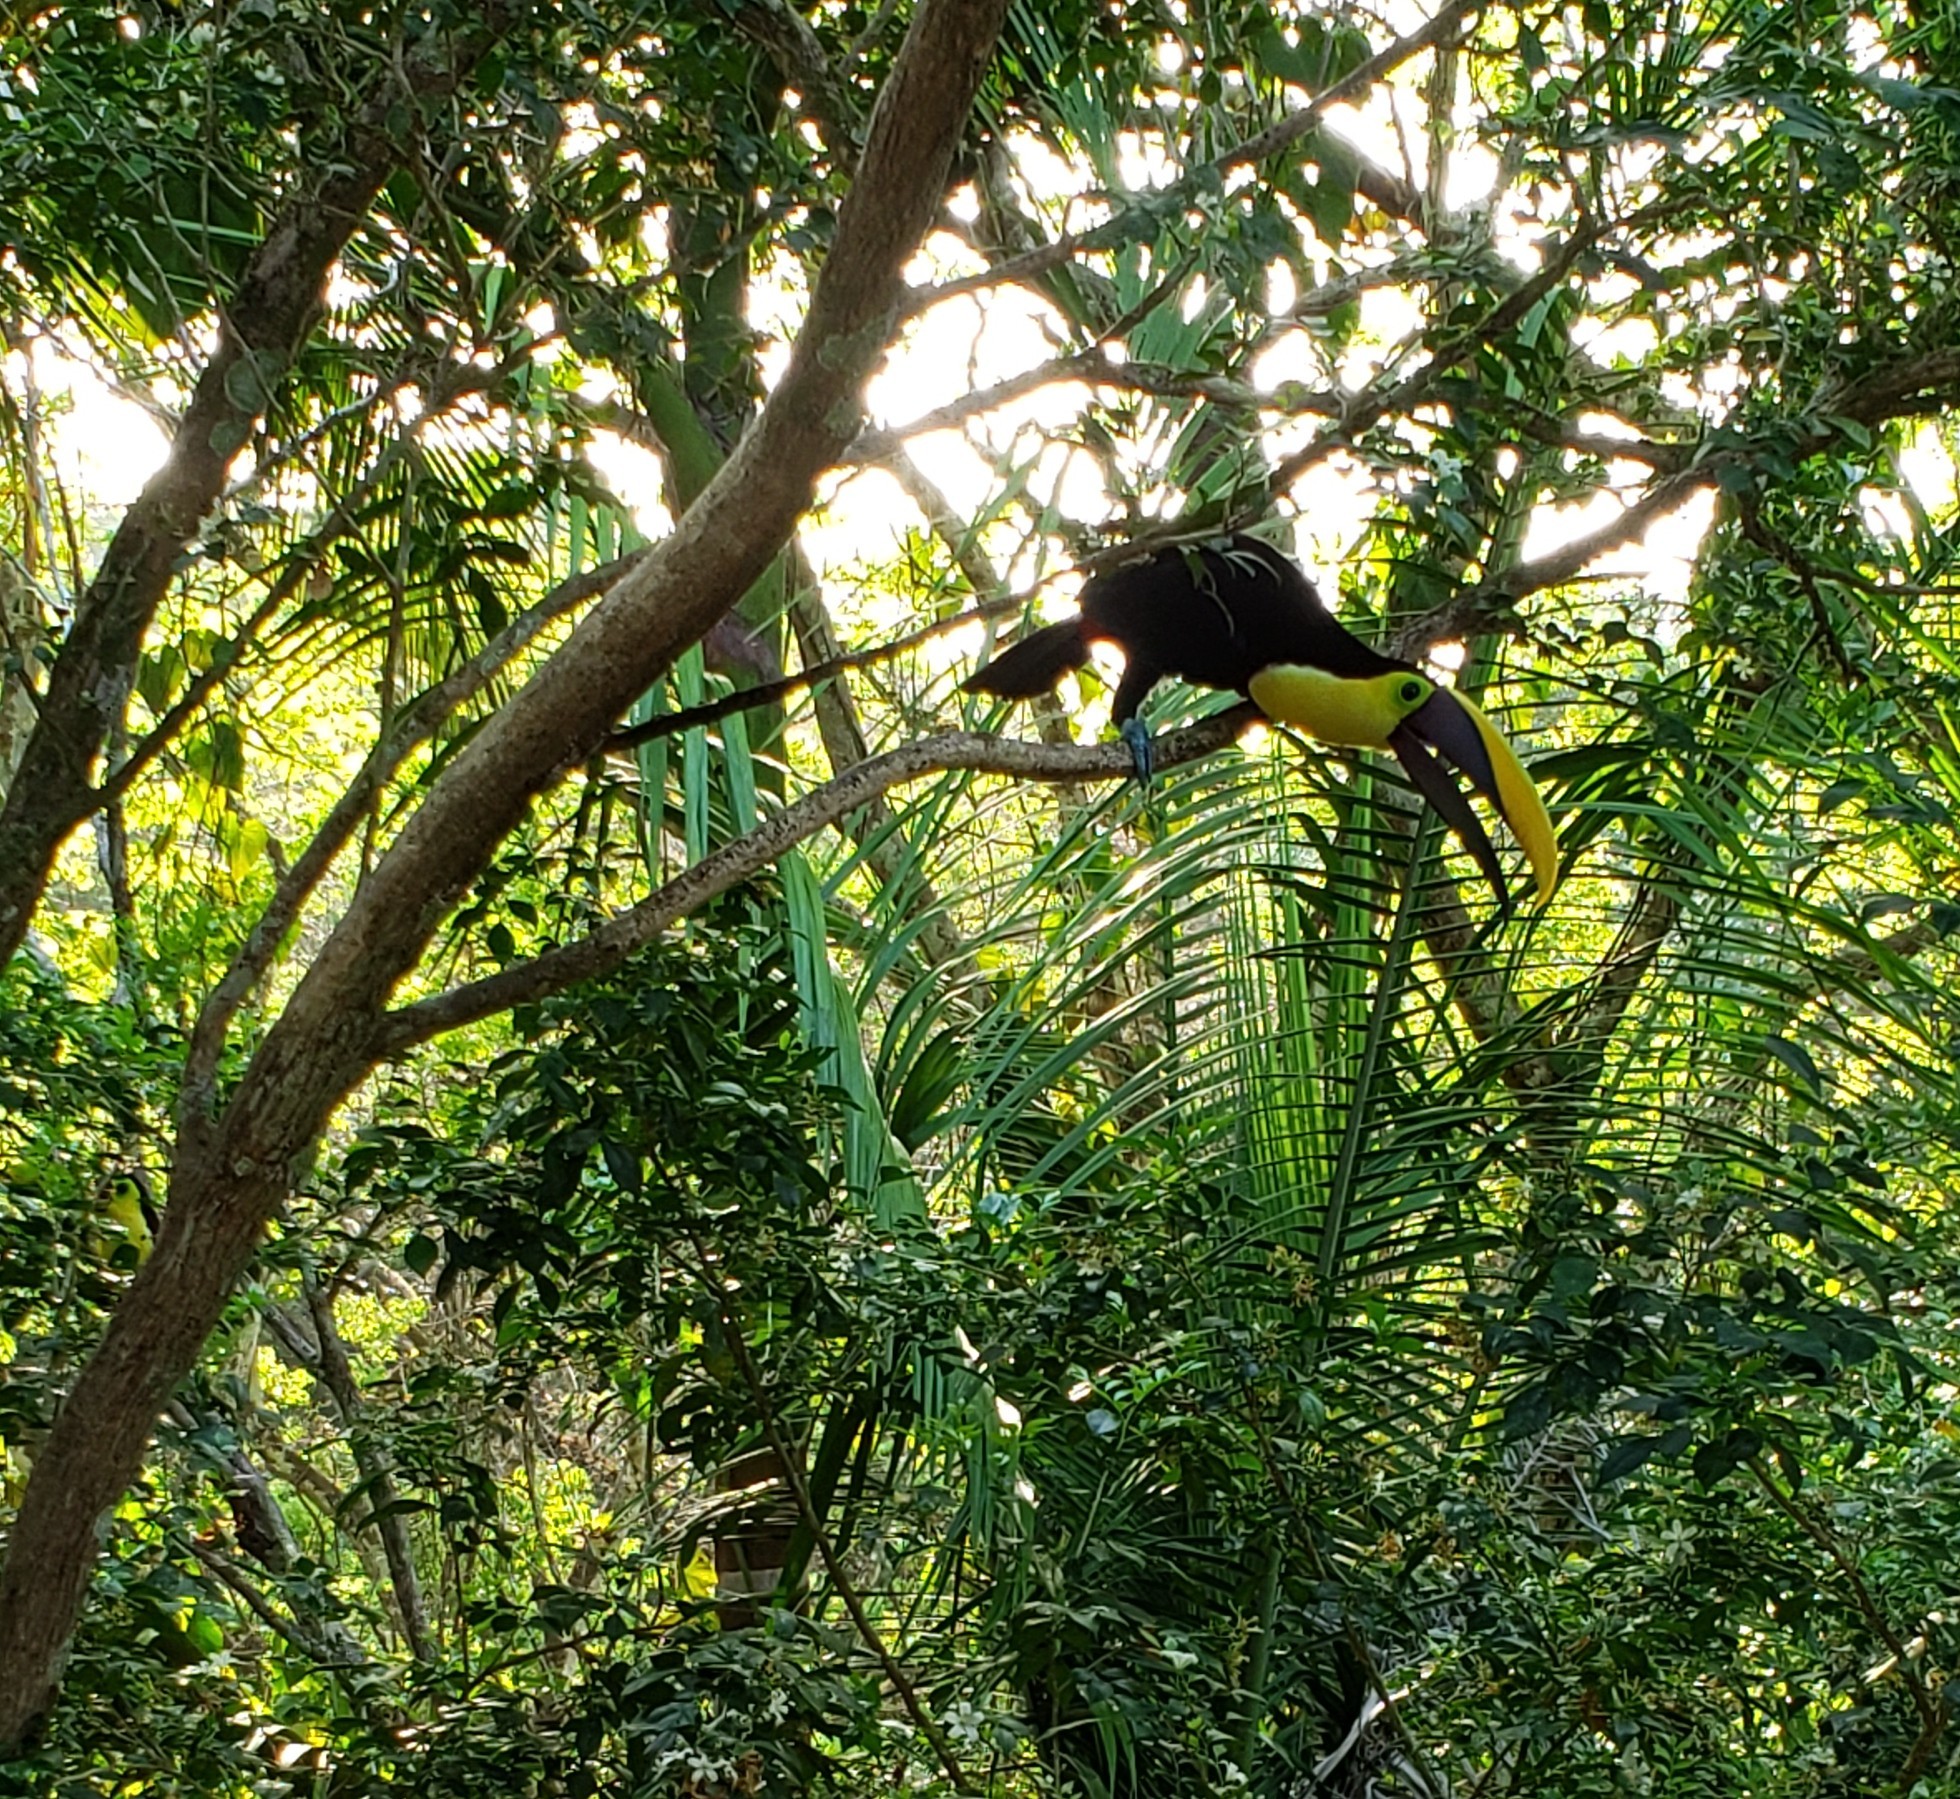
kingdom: Animalia
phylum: Chordata
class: Aves
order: Piciformes
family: Ramphastidae
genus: Ramphastos
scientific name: Ramphastos ambiguus
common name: Yellow-throated toucan
